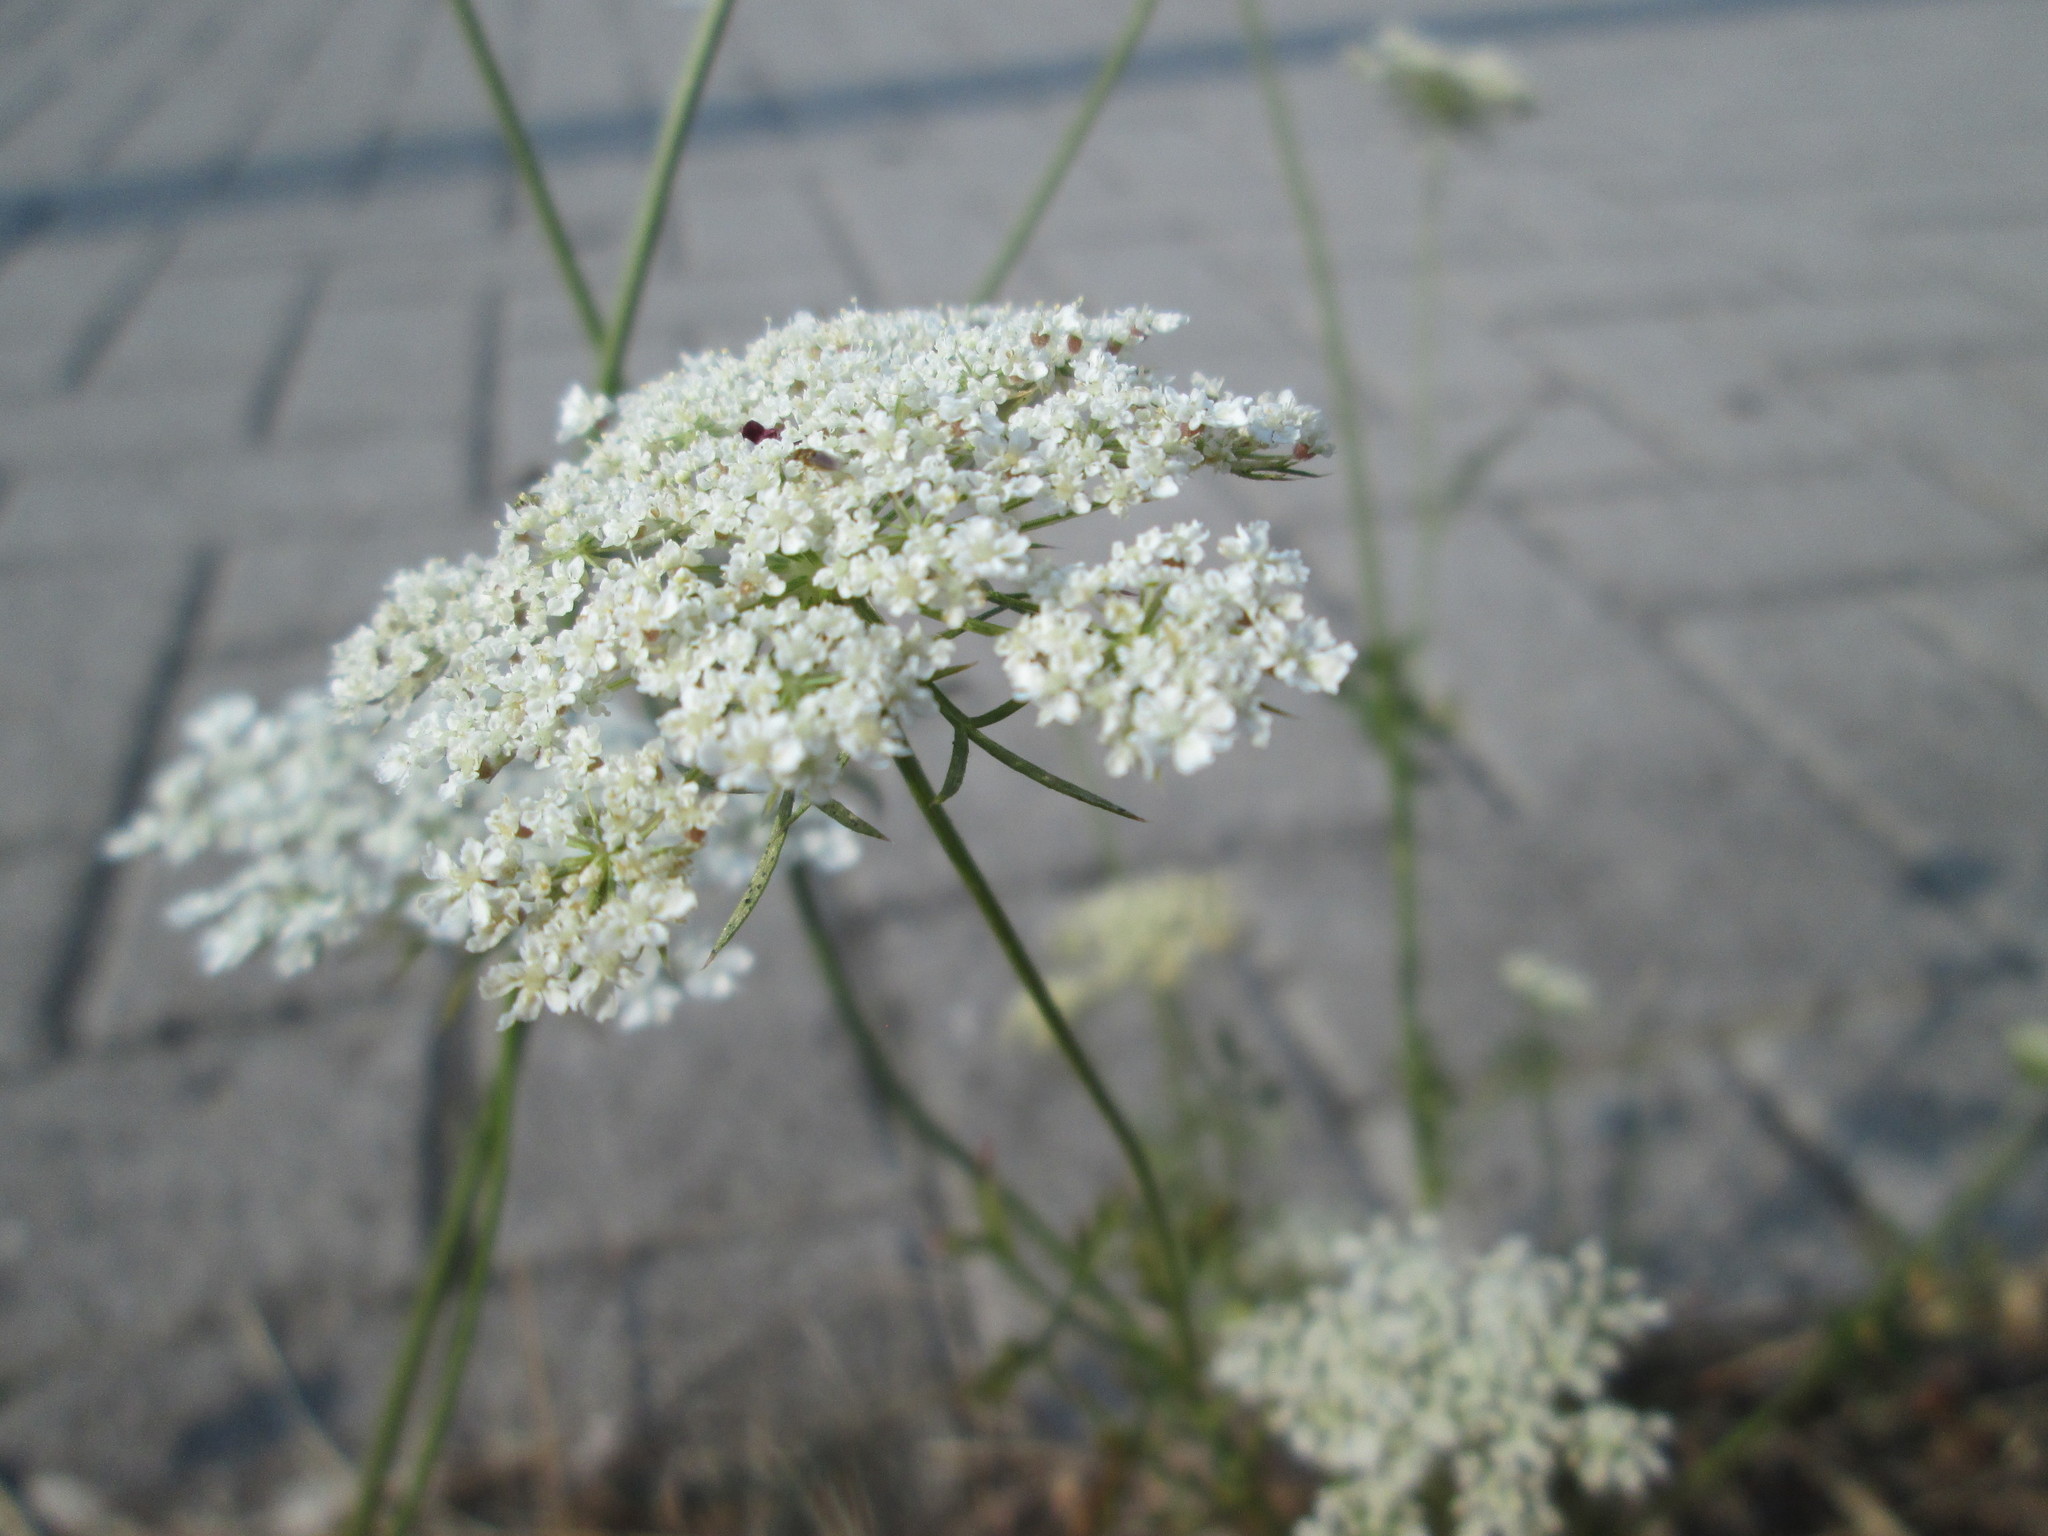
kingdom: Plantae
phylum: Tracheophyta
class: Magnoliopsida
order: Apiales
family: Apiaceae
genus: Daucus
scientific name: Daucus carota
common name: Wild carrot
